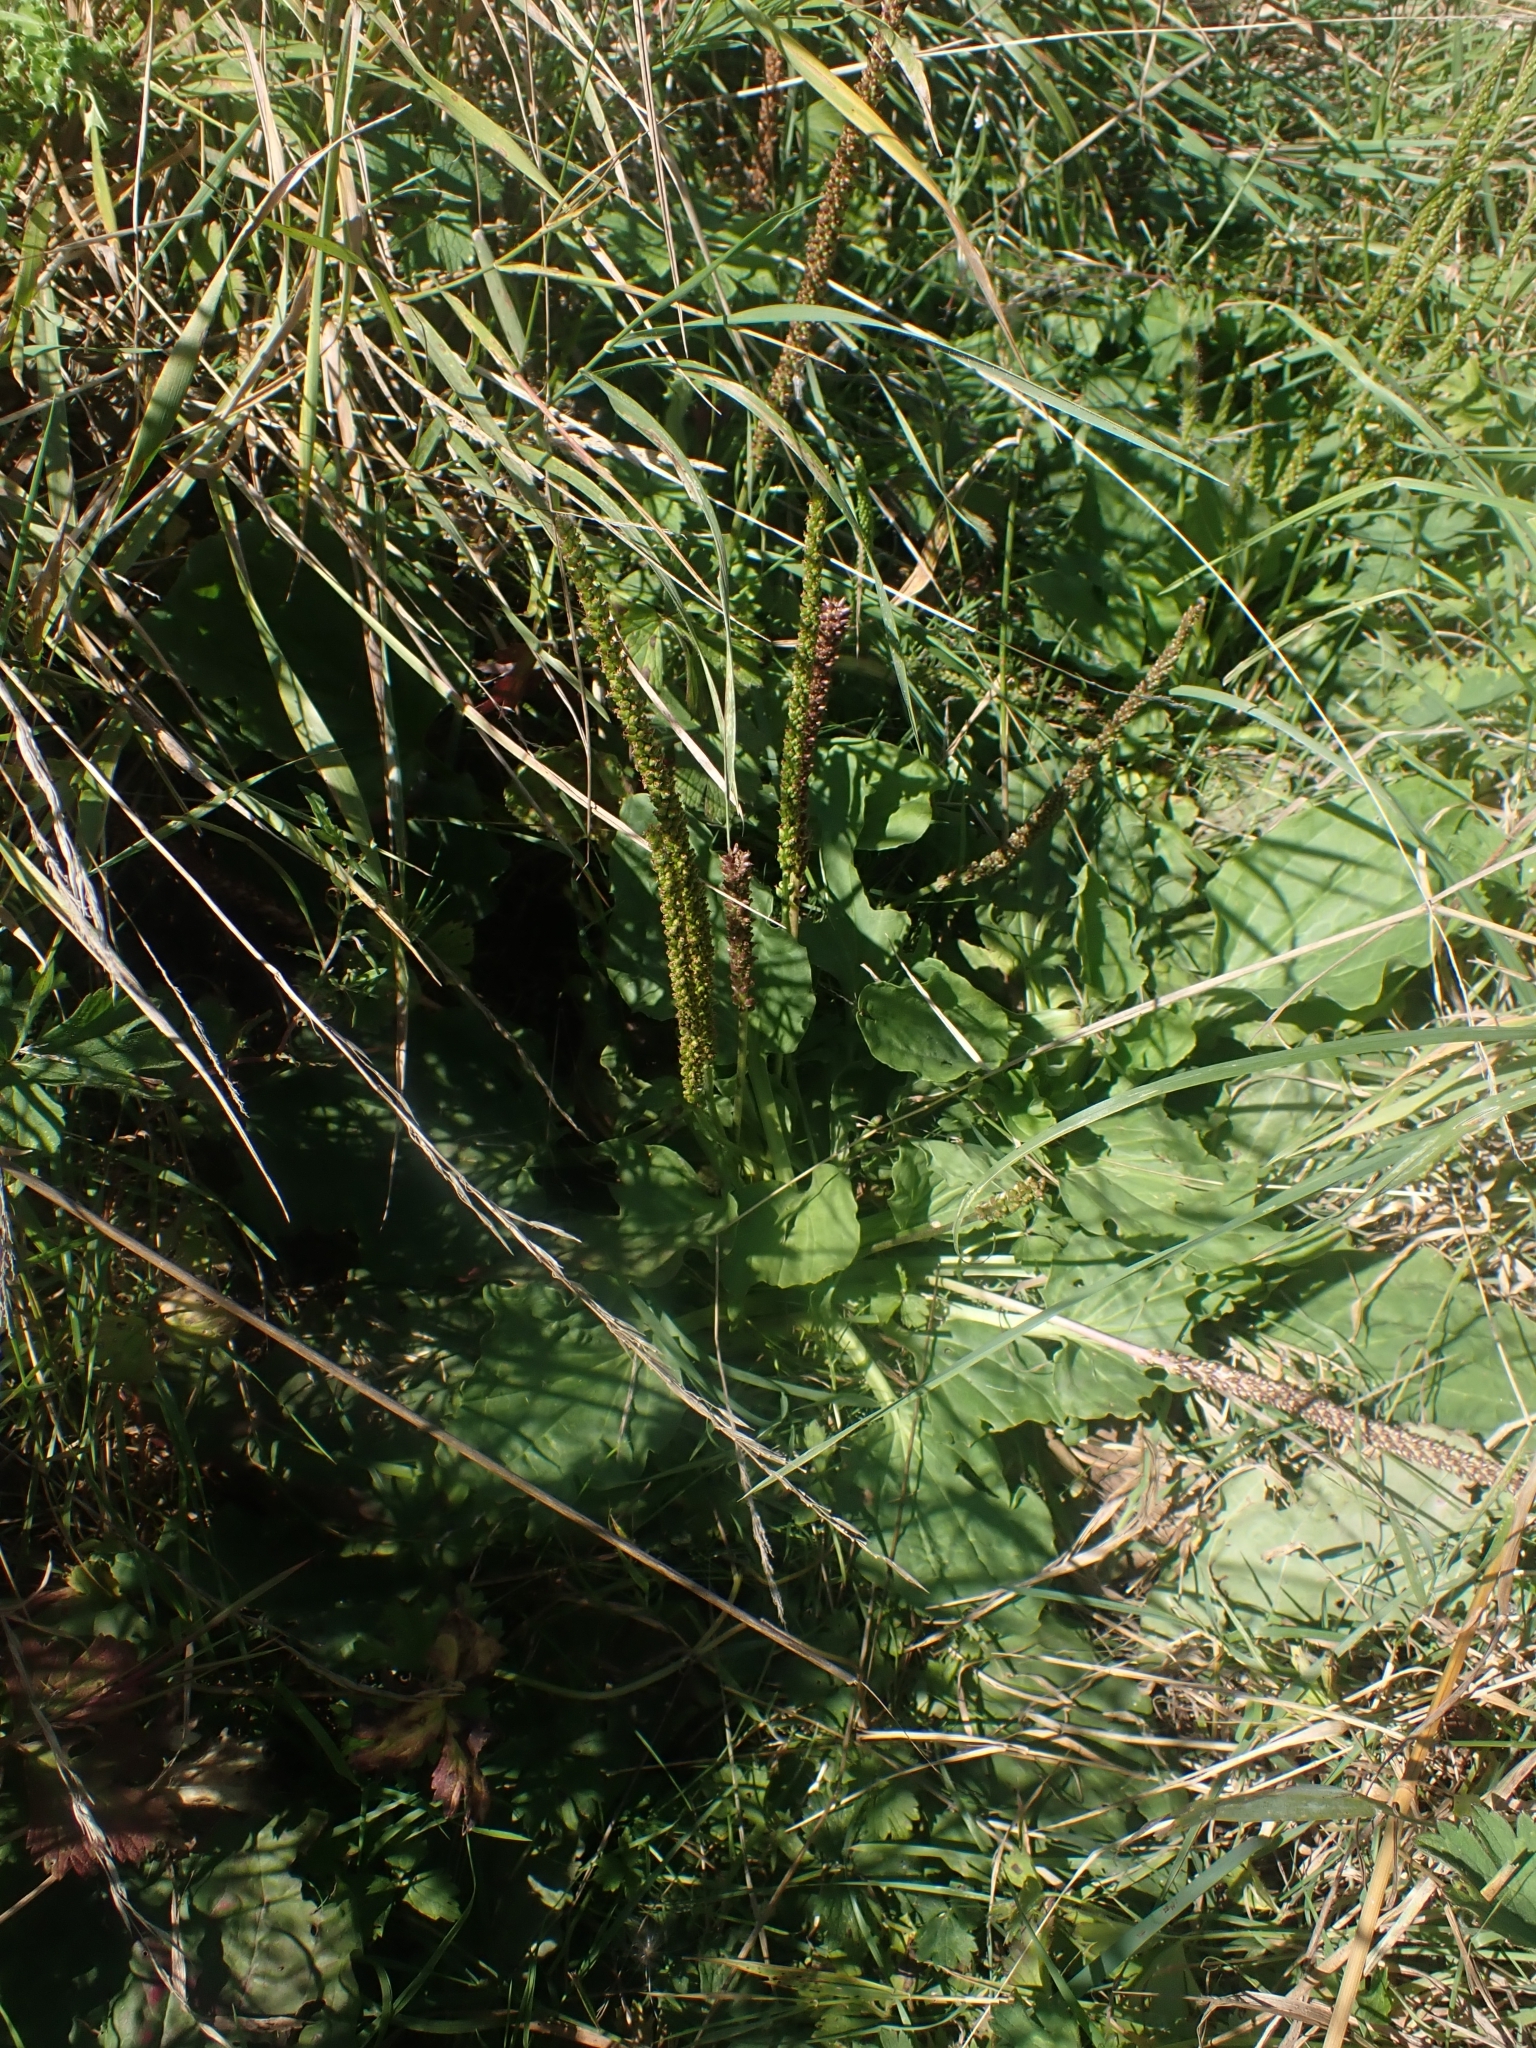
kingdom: Plantae
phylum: Tracheophyta
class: Magnoliopsida
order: Lamiales
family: Plantaginaceae
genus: Plantago
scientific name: Plantago major
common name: Common plantain
